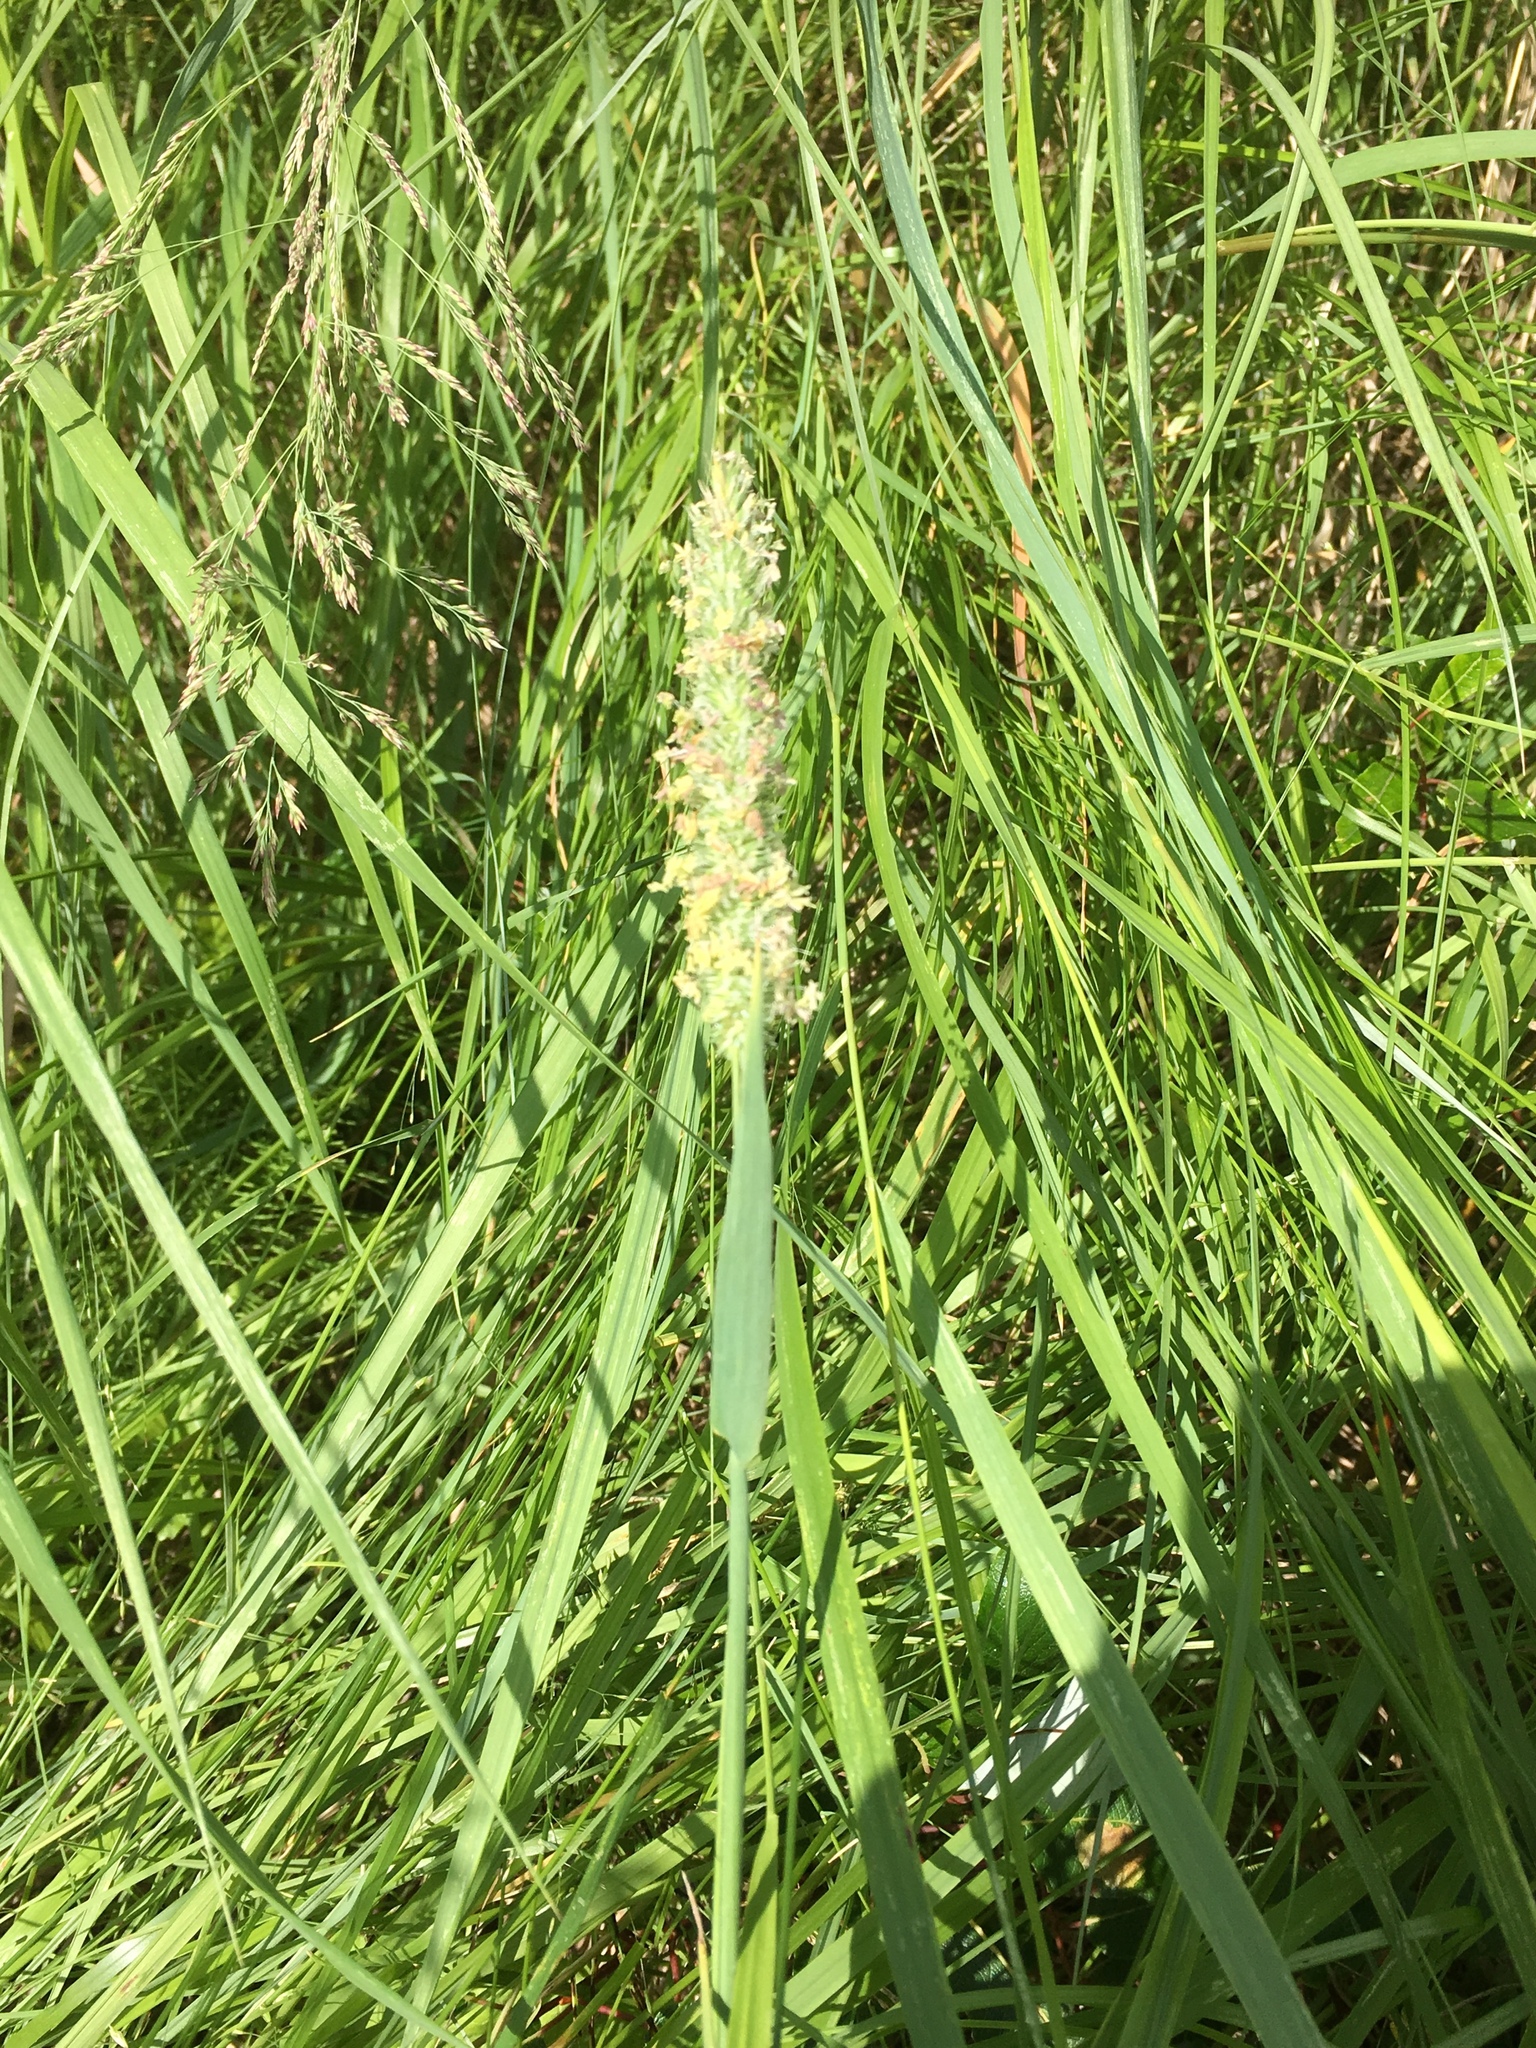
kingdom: Plantae
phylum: Tracheophyta
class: Liliopsida
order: Poales
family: Poaceae
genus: Phleum
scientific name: Phleum pratense
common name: Timothy grass
